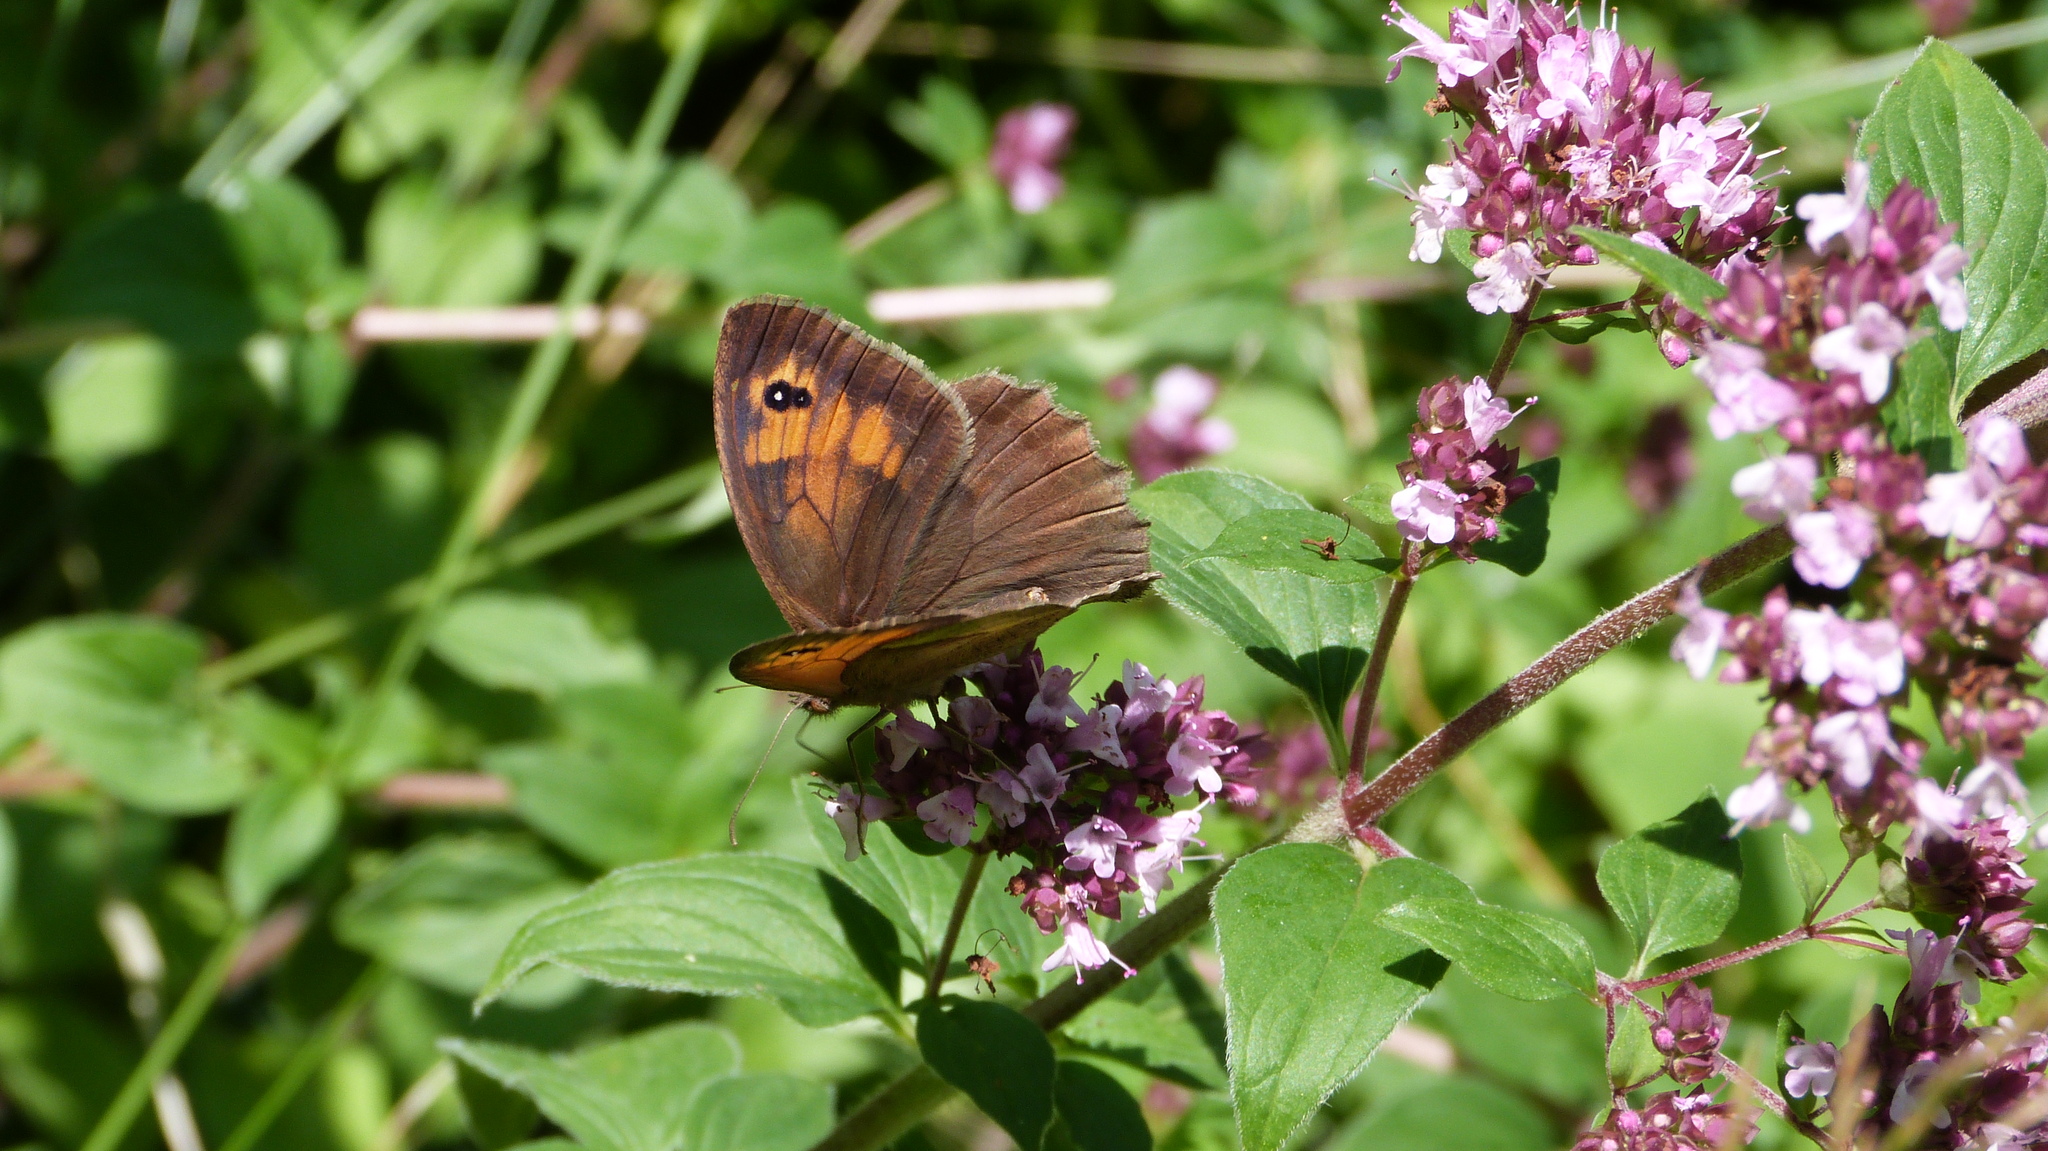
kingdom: Animalia
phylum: Arthropoda
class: Insecta
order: Lepidoptera
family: Nymphalidae
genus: Maniola
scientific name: Maniola jurtina
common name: Meadow brown
